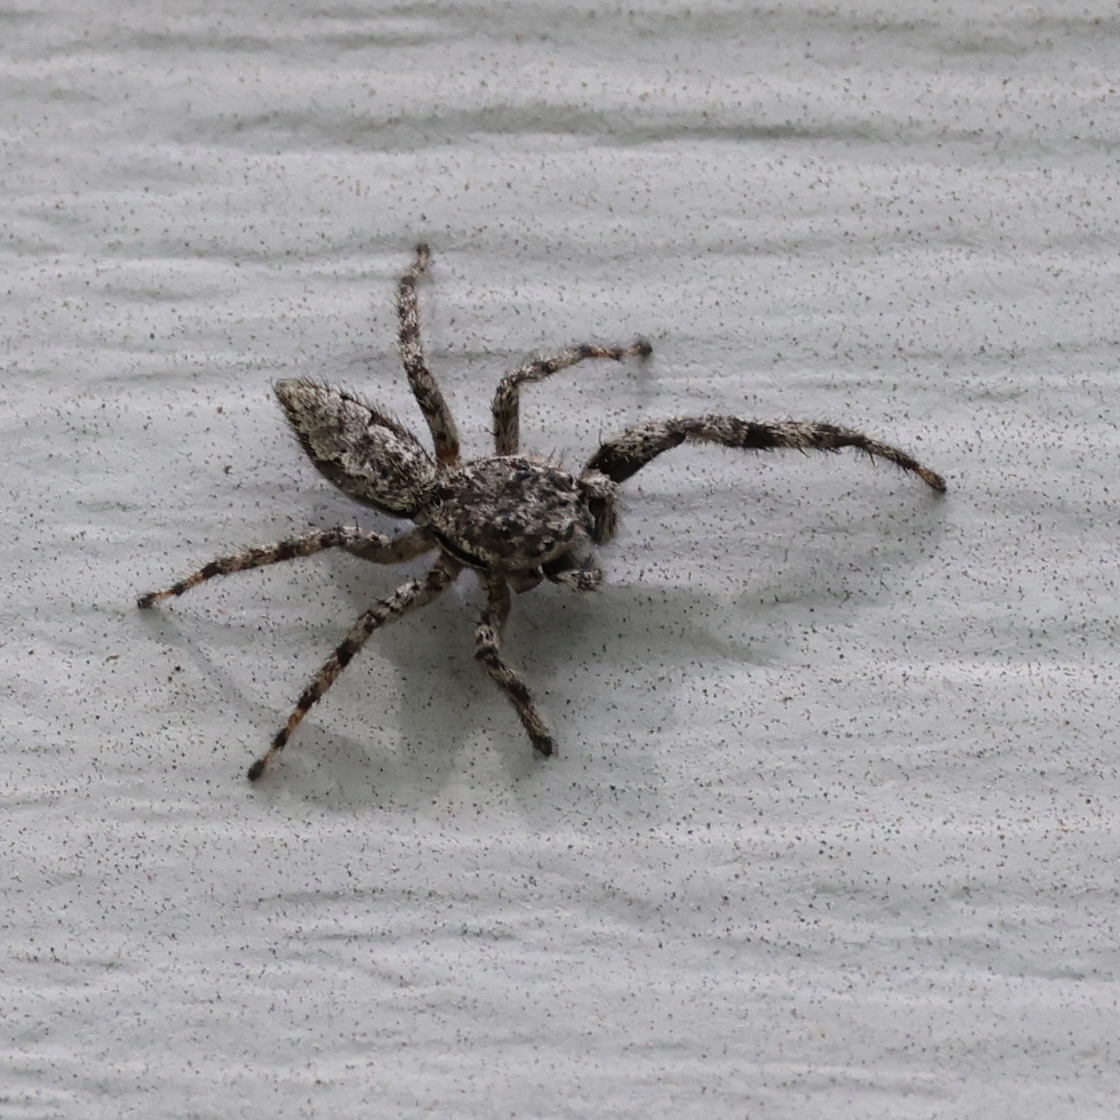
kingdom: Animalia
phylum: Arthropoda
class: Arachnida
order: Araneae
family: Salticidae
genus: Platycryptus
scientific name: Platycryptus undatus
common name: Tan jumping spider
